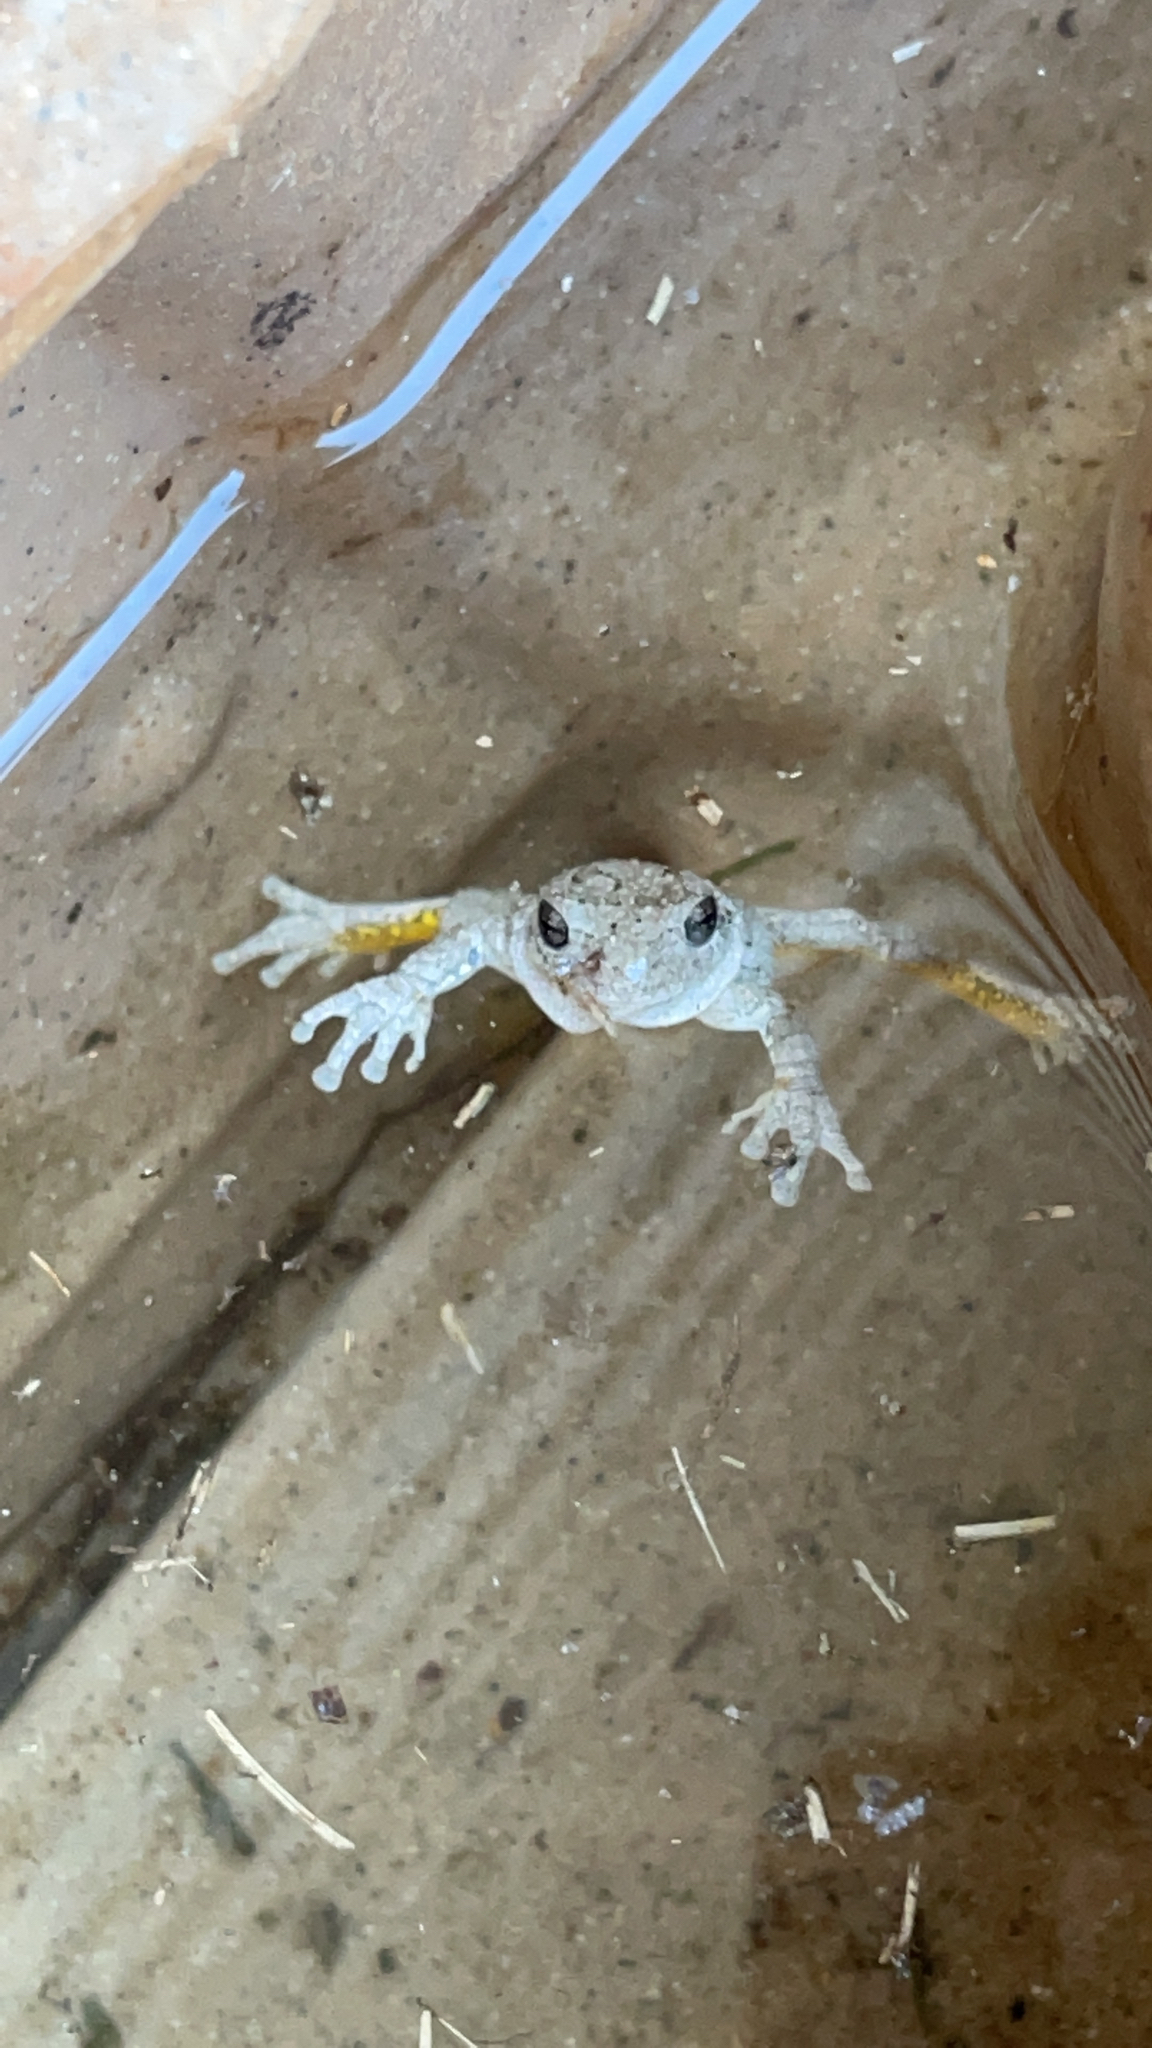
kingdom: Animalia
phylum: Chordata
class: Amphibia
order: Anura
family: Hylidae
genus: Dryophytes
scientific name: Dryophytes chrysoscelis
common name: Cope's gray treefrog
